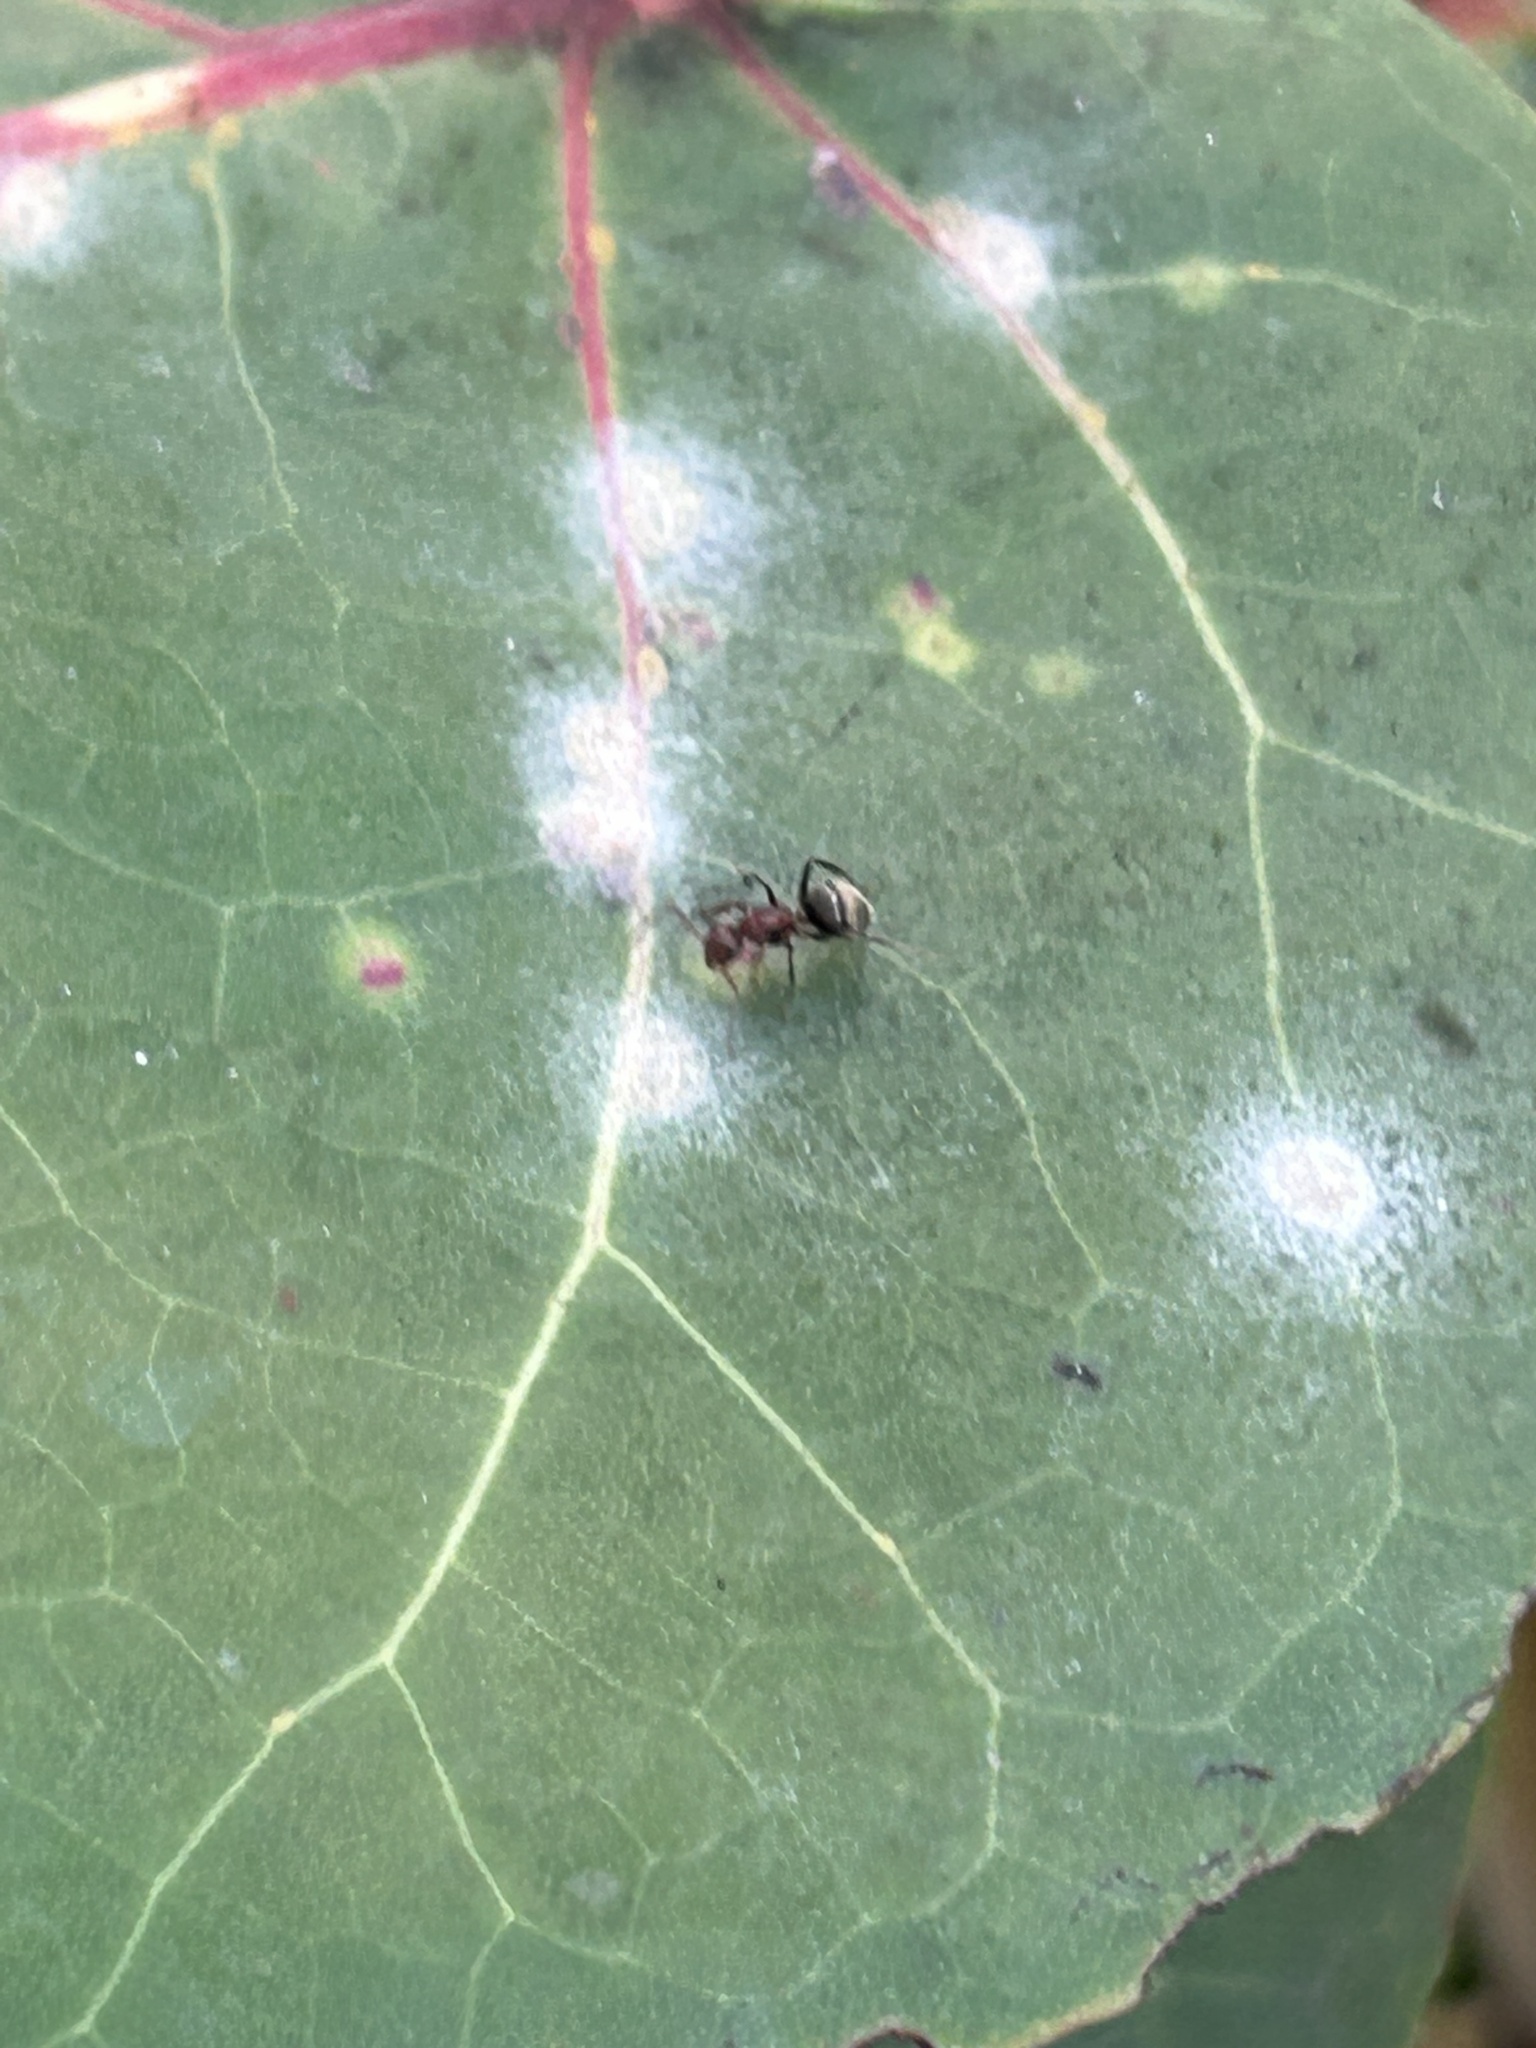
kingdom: Animalia
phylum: Arthropoda
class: Insecta
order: Hymenoptera
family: Formicidae
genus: Camponotus
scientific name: Camponotus planatus
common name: Compact carpenter ant
